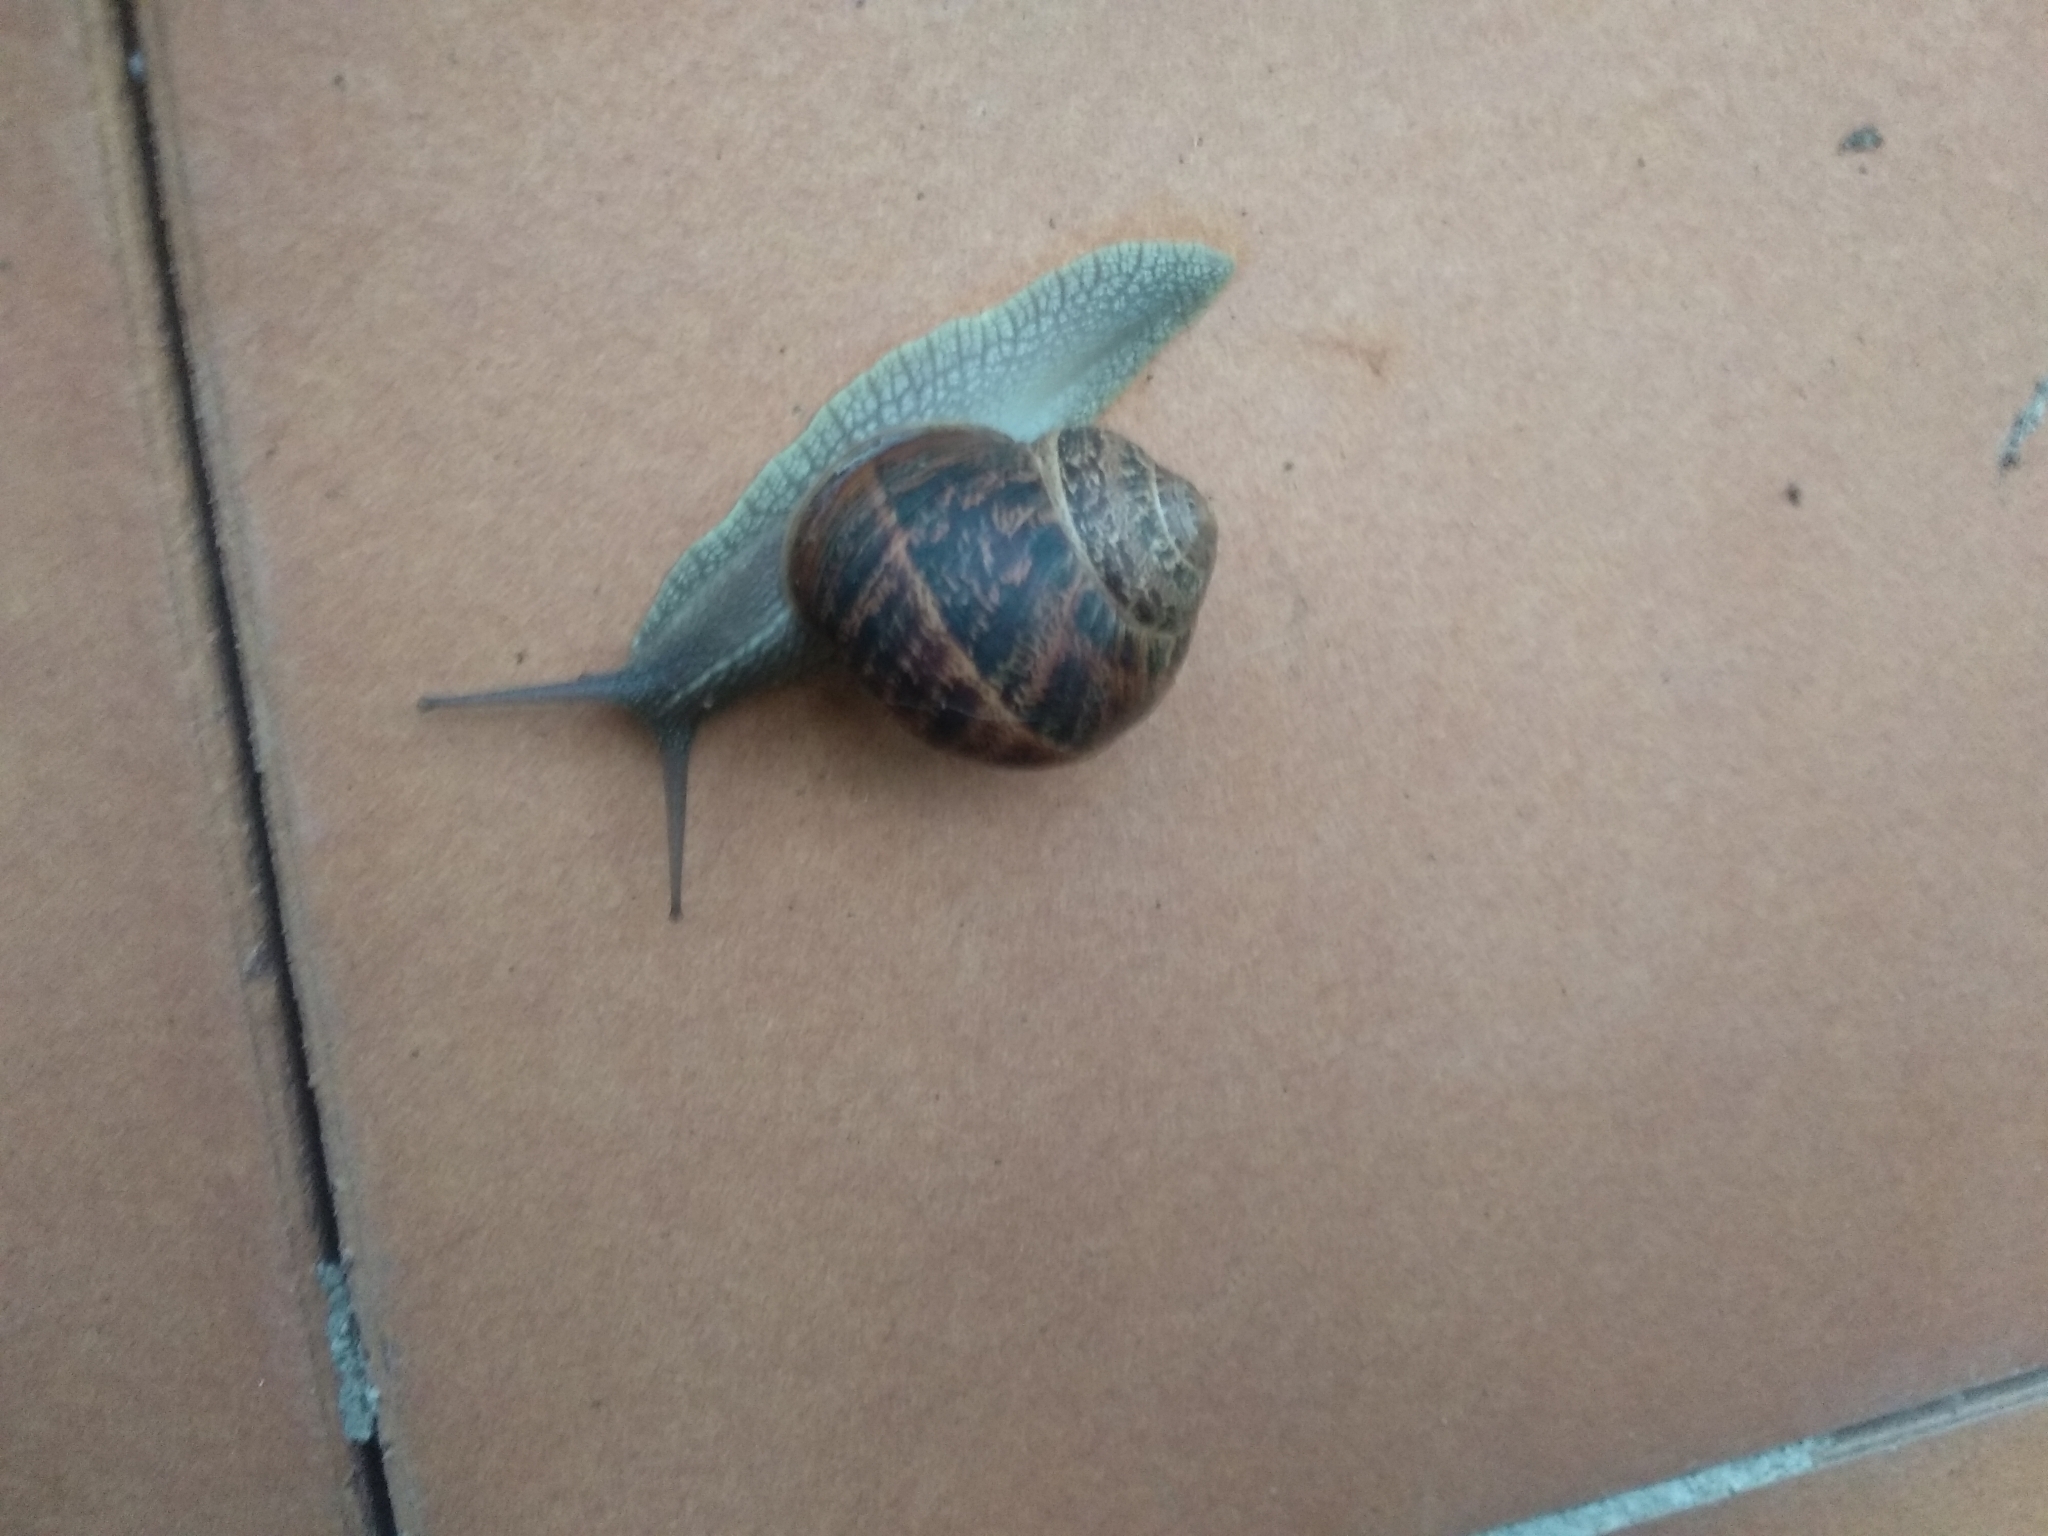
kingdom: Animalia
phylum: Mollusca
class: Gastropoda
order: Stylommatophora
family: Helicidae
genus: Cornu
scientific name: Cornu aspersum
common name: Brown garden snail
